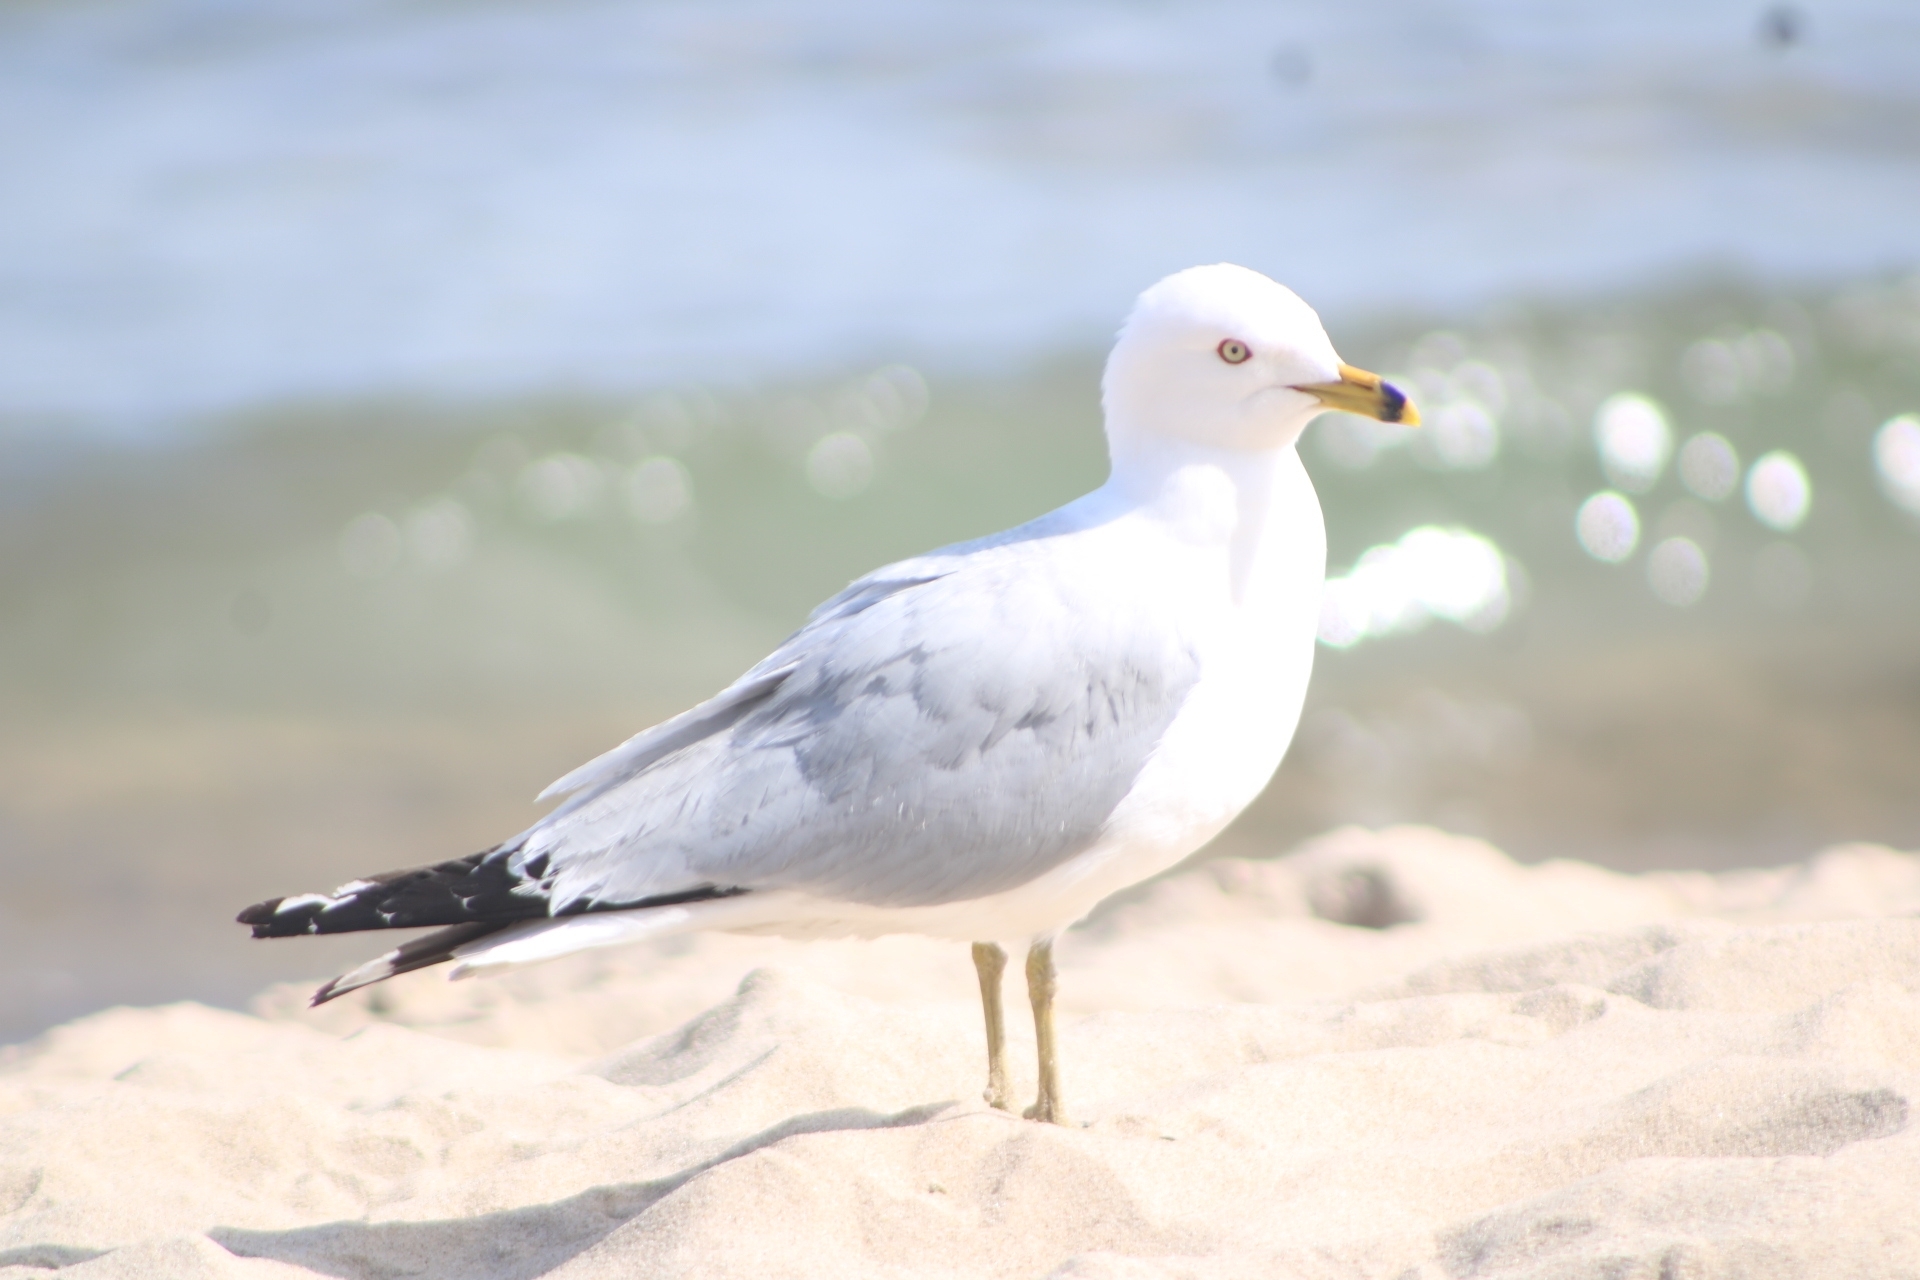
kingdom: Animalia
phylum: Chordata
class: Aves
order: Charadriiformes
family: Laridae
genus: Larus
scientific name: Larus delawarensis
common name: Ring-billed gull
